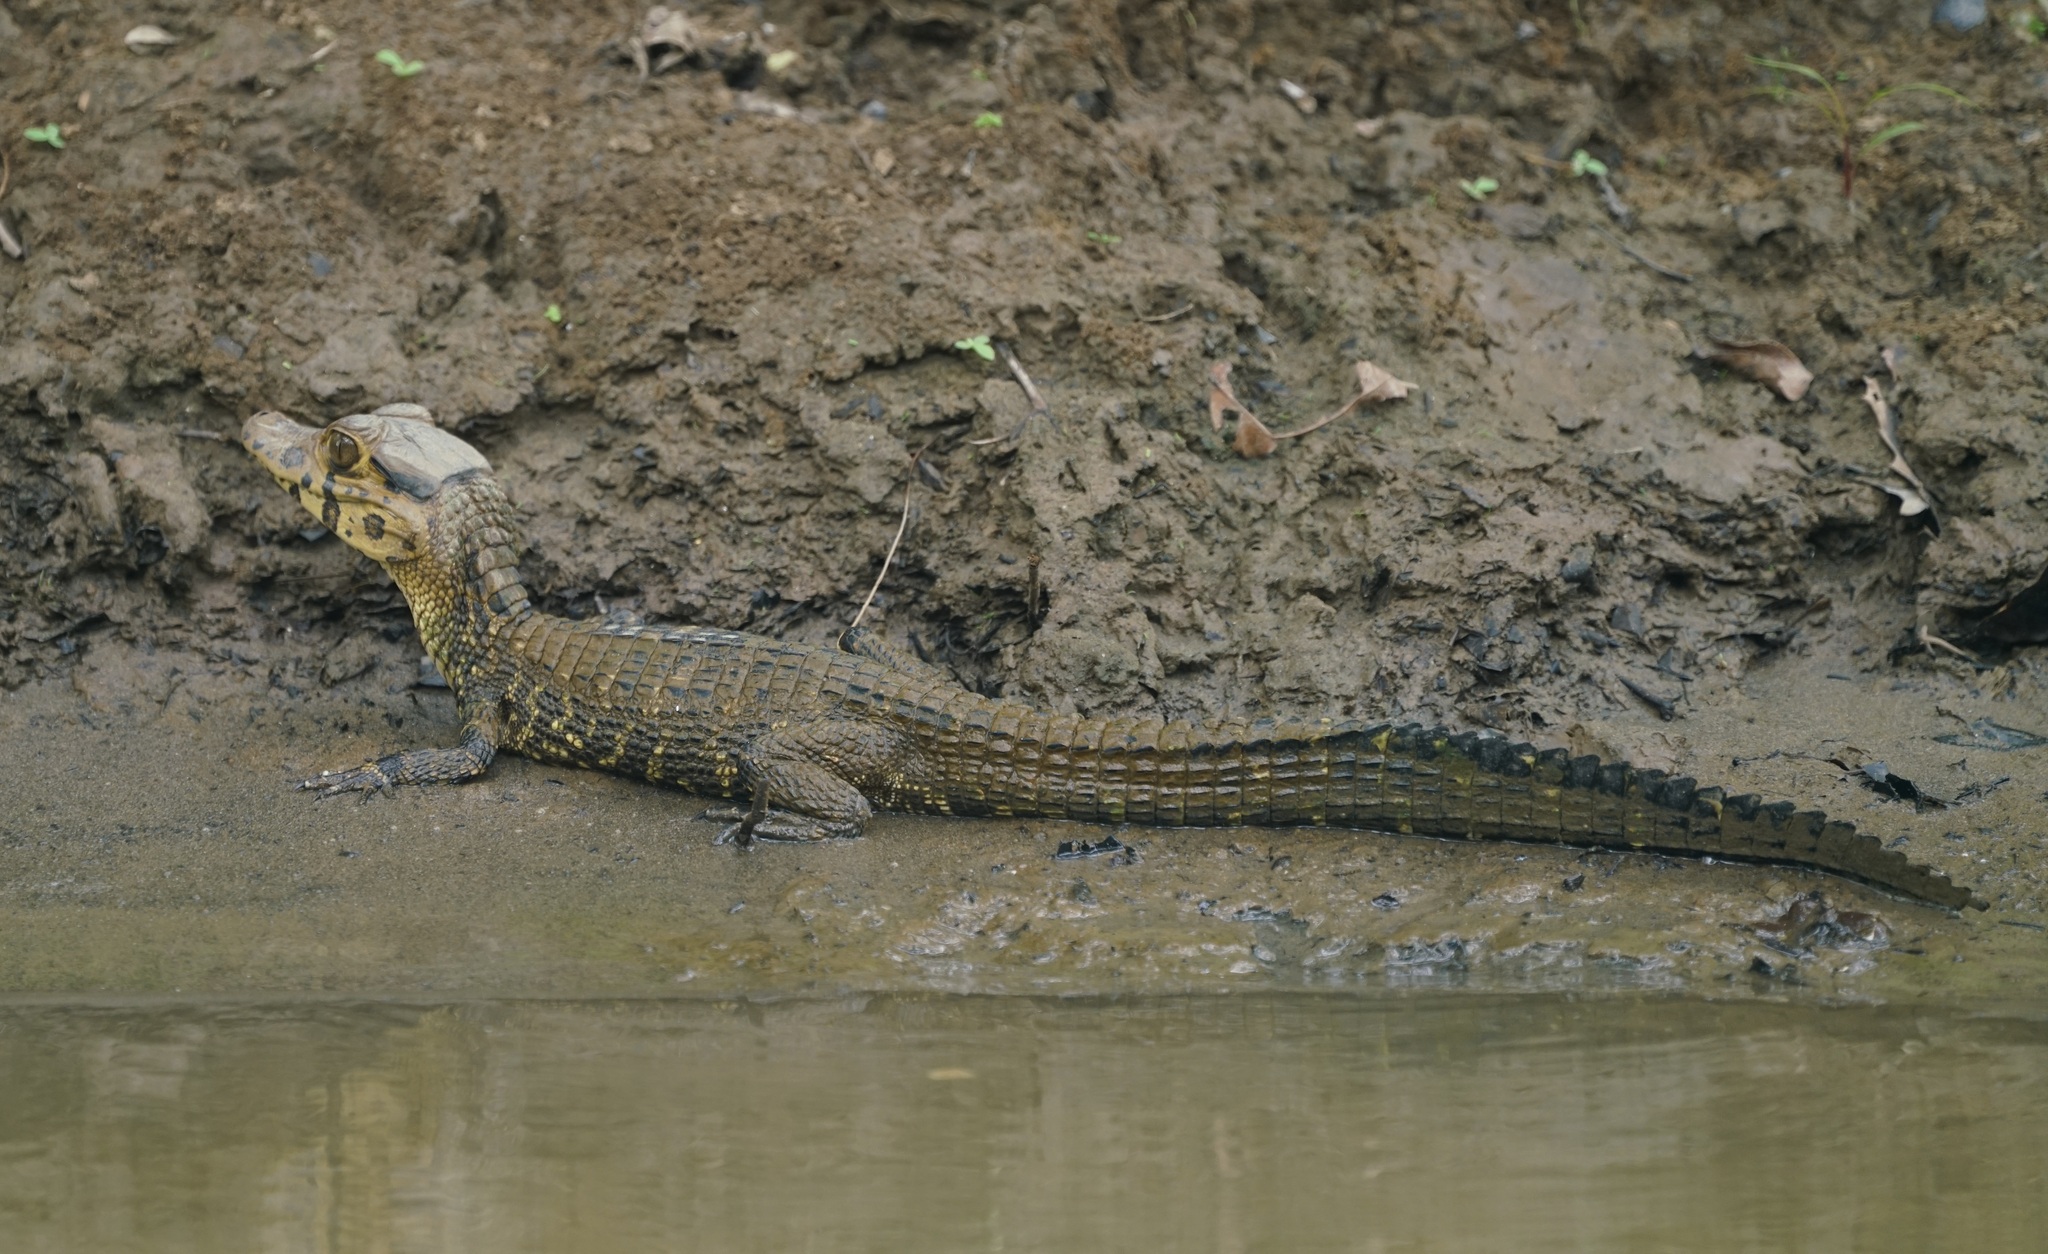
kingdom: Animalia
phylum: Chordata
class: Crocodylia
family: Alligatoridae
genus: Melanosuchus
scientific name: Melanosuchus niger
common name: Black caiman
